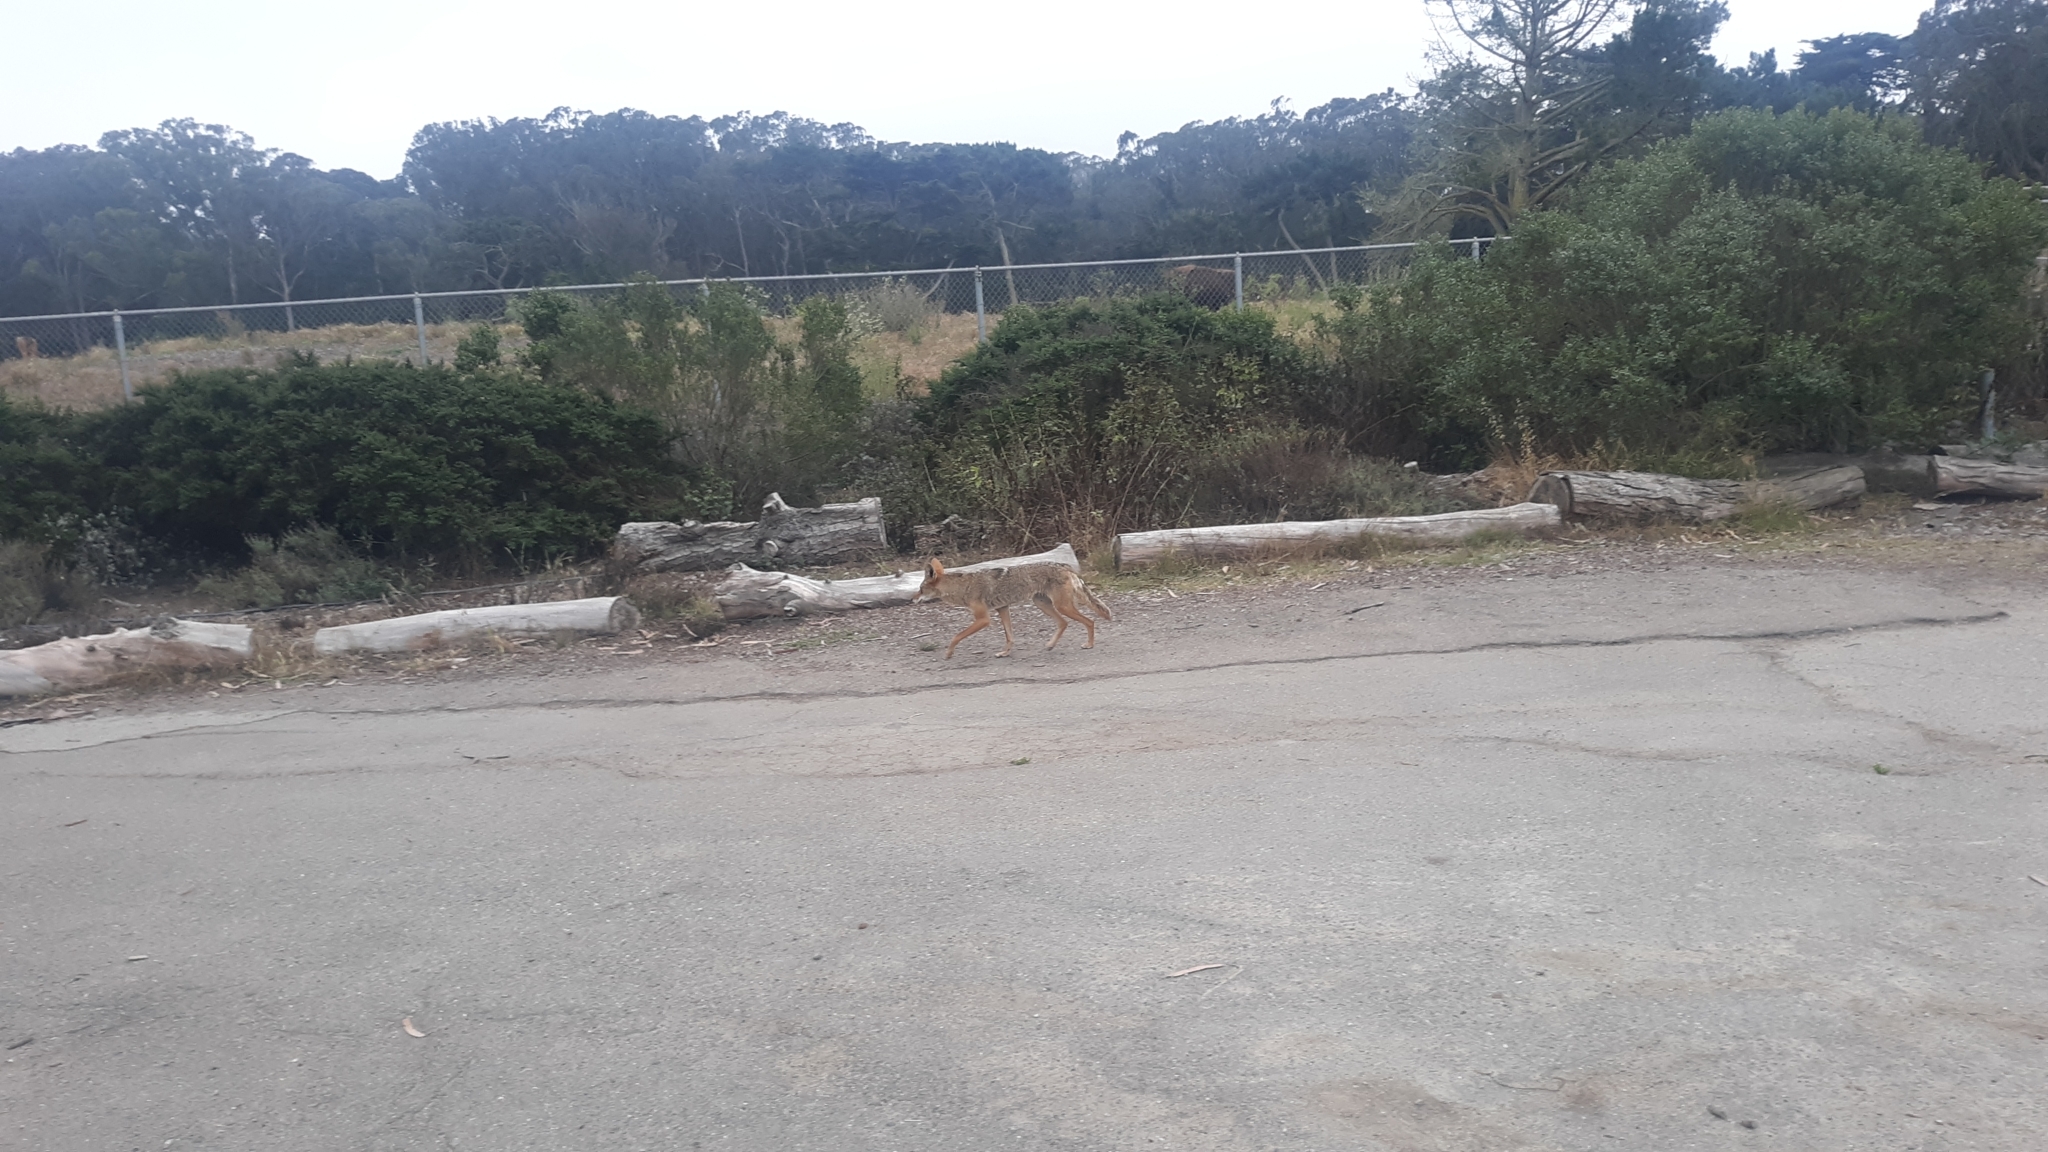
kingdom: Animalia
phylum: Chordata
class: Mammalia
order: Carnivora
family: Canidae
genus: Canis
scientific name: Canis latrans
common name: Coyote
